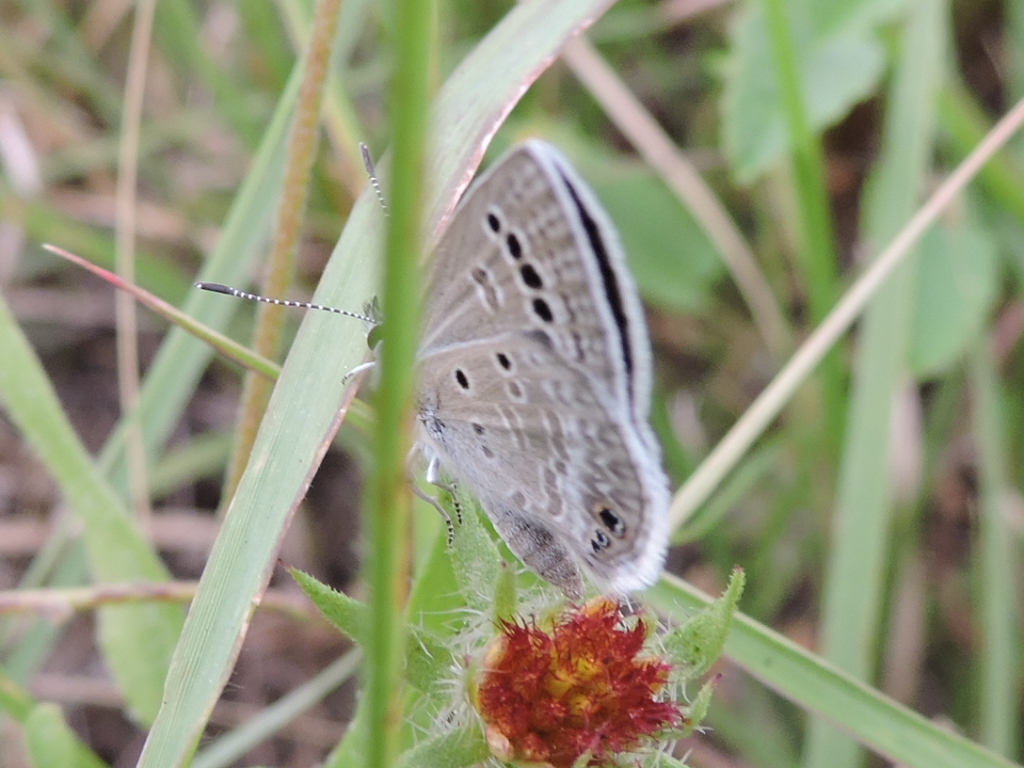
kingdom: Animalia
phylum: Arthropoda
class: Insecta
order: Lepidoptera
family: Lycaenidae
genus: Echinargus
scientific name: Echinargus isola
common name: Reakirt's blue
